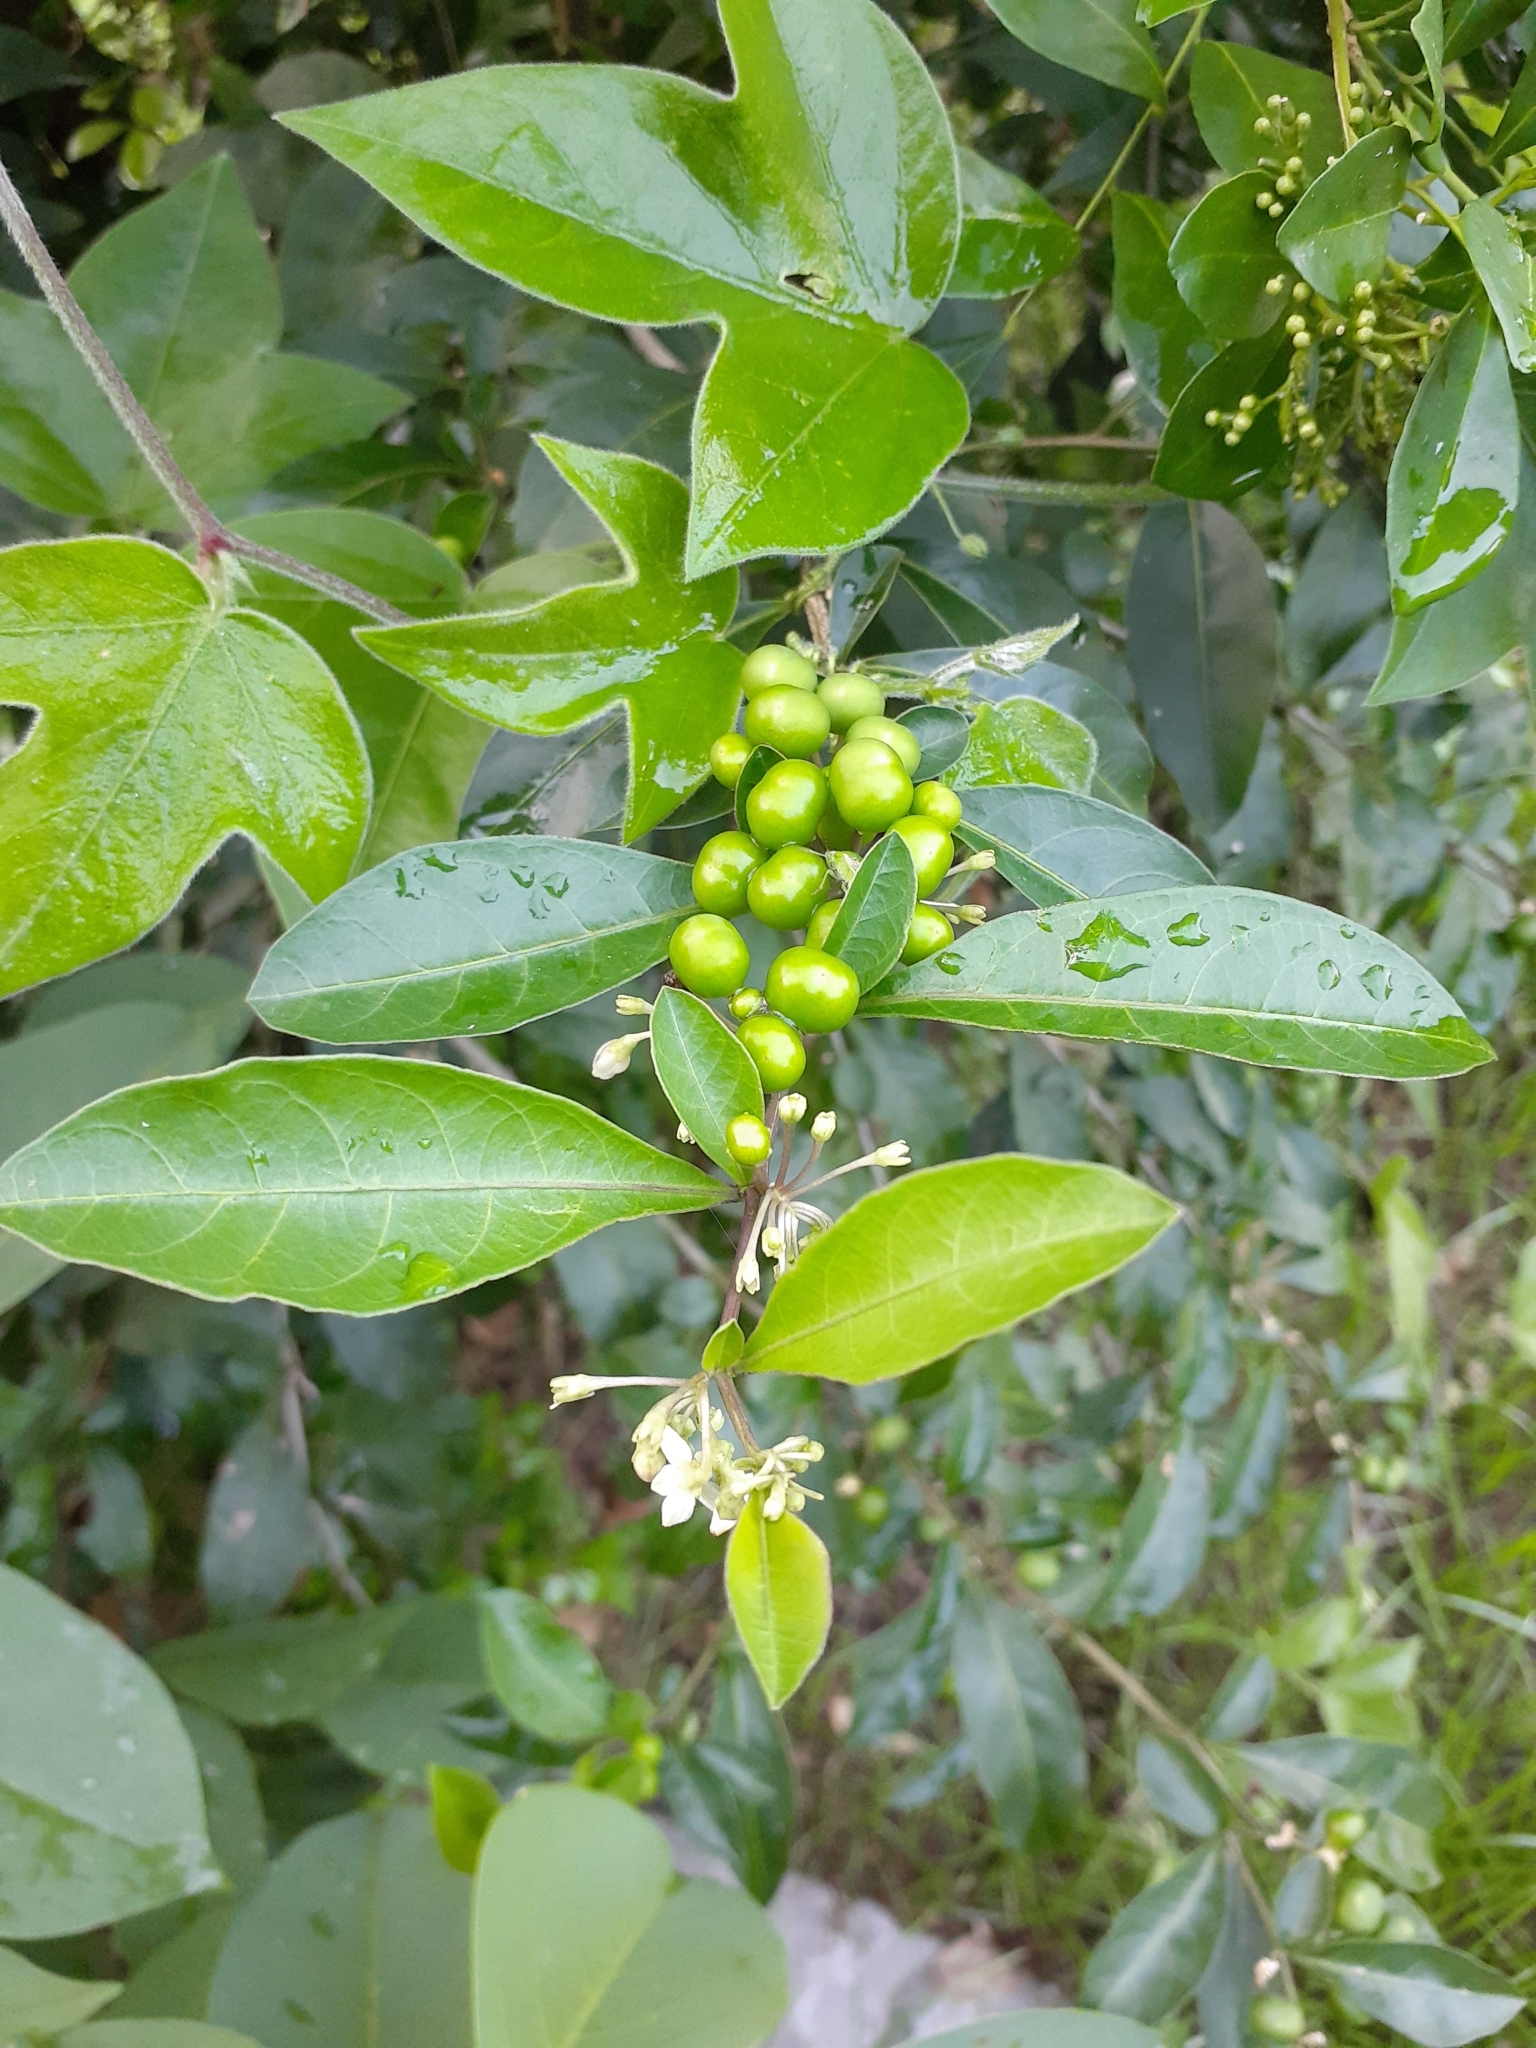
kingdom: Plantae
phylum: Tracheophyta
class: Magnoliopsida
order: Solanales
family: Solanaceae
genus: Solanum
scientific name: Solanum diphyllum
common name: Twoleaf nightshade
